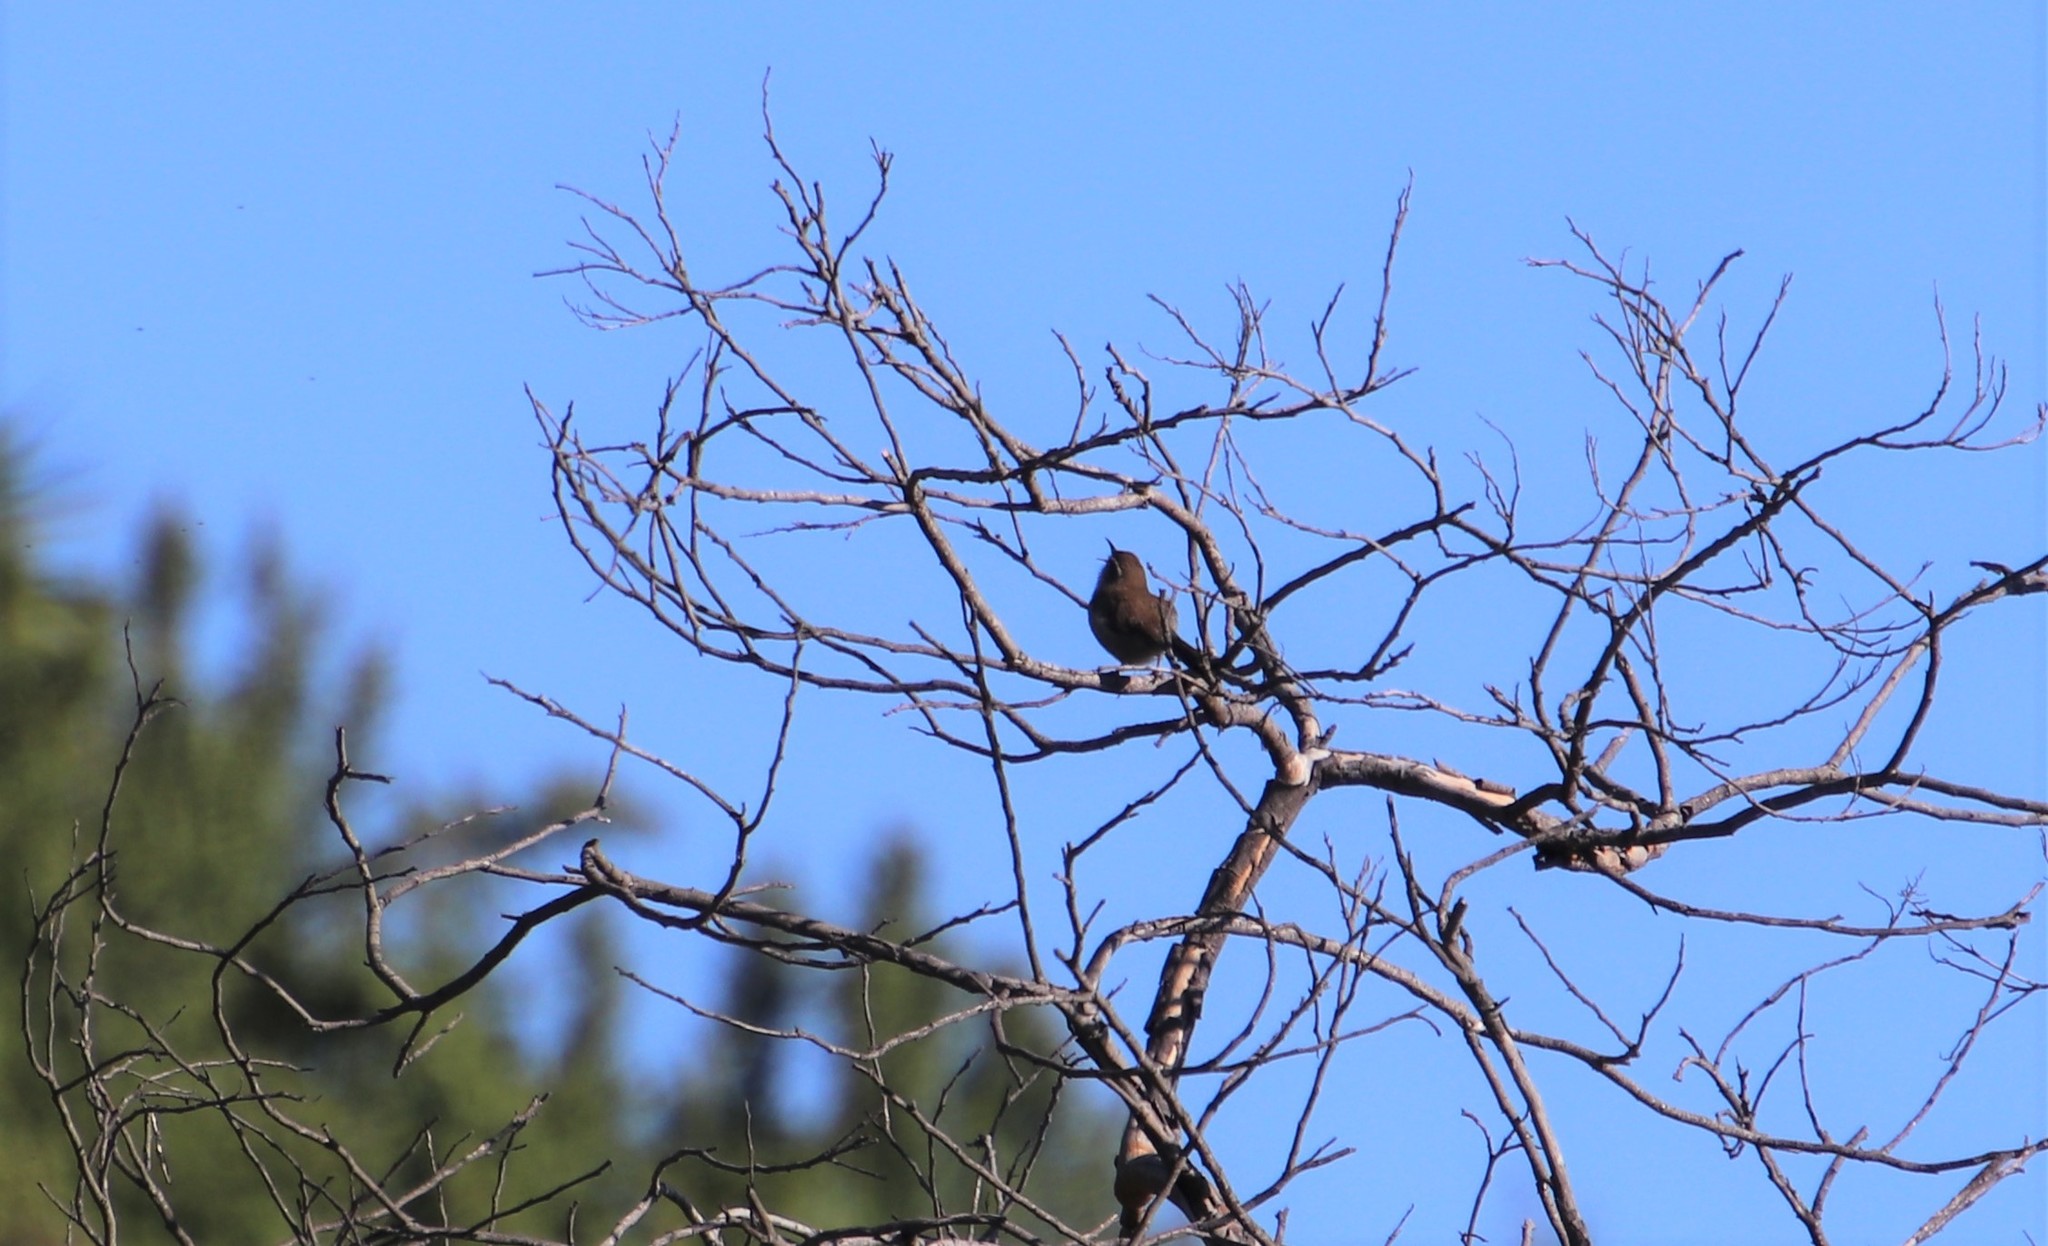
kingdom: Animalia
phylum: Chordata
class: Aves
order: Passeriformes
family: Troglodytidae
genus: Thryomanes
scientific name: Thryomanes bewickii
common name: Bewick's wren
